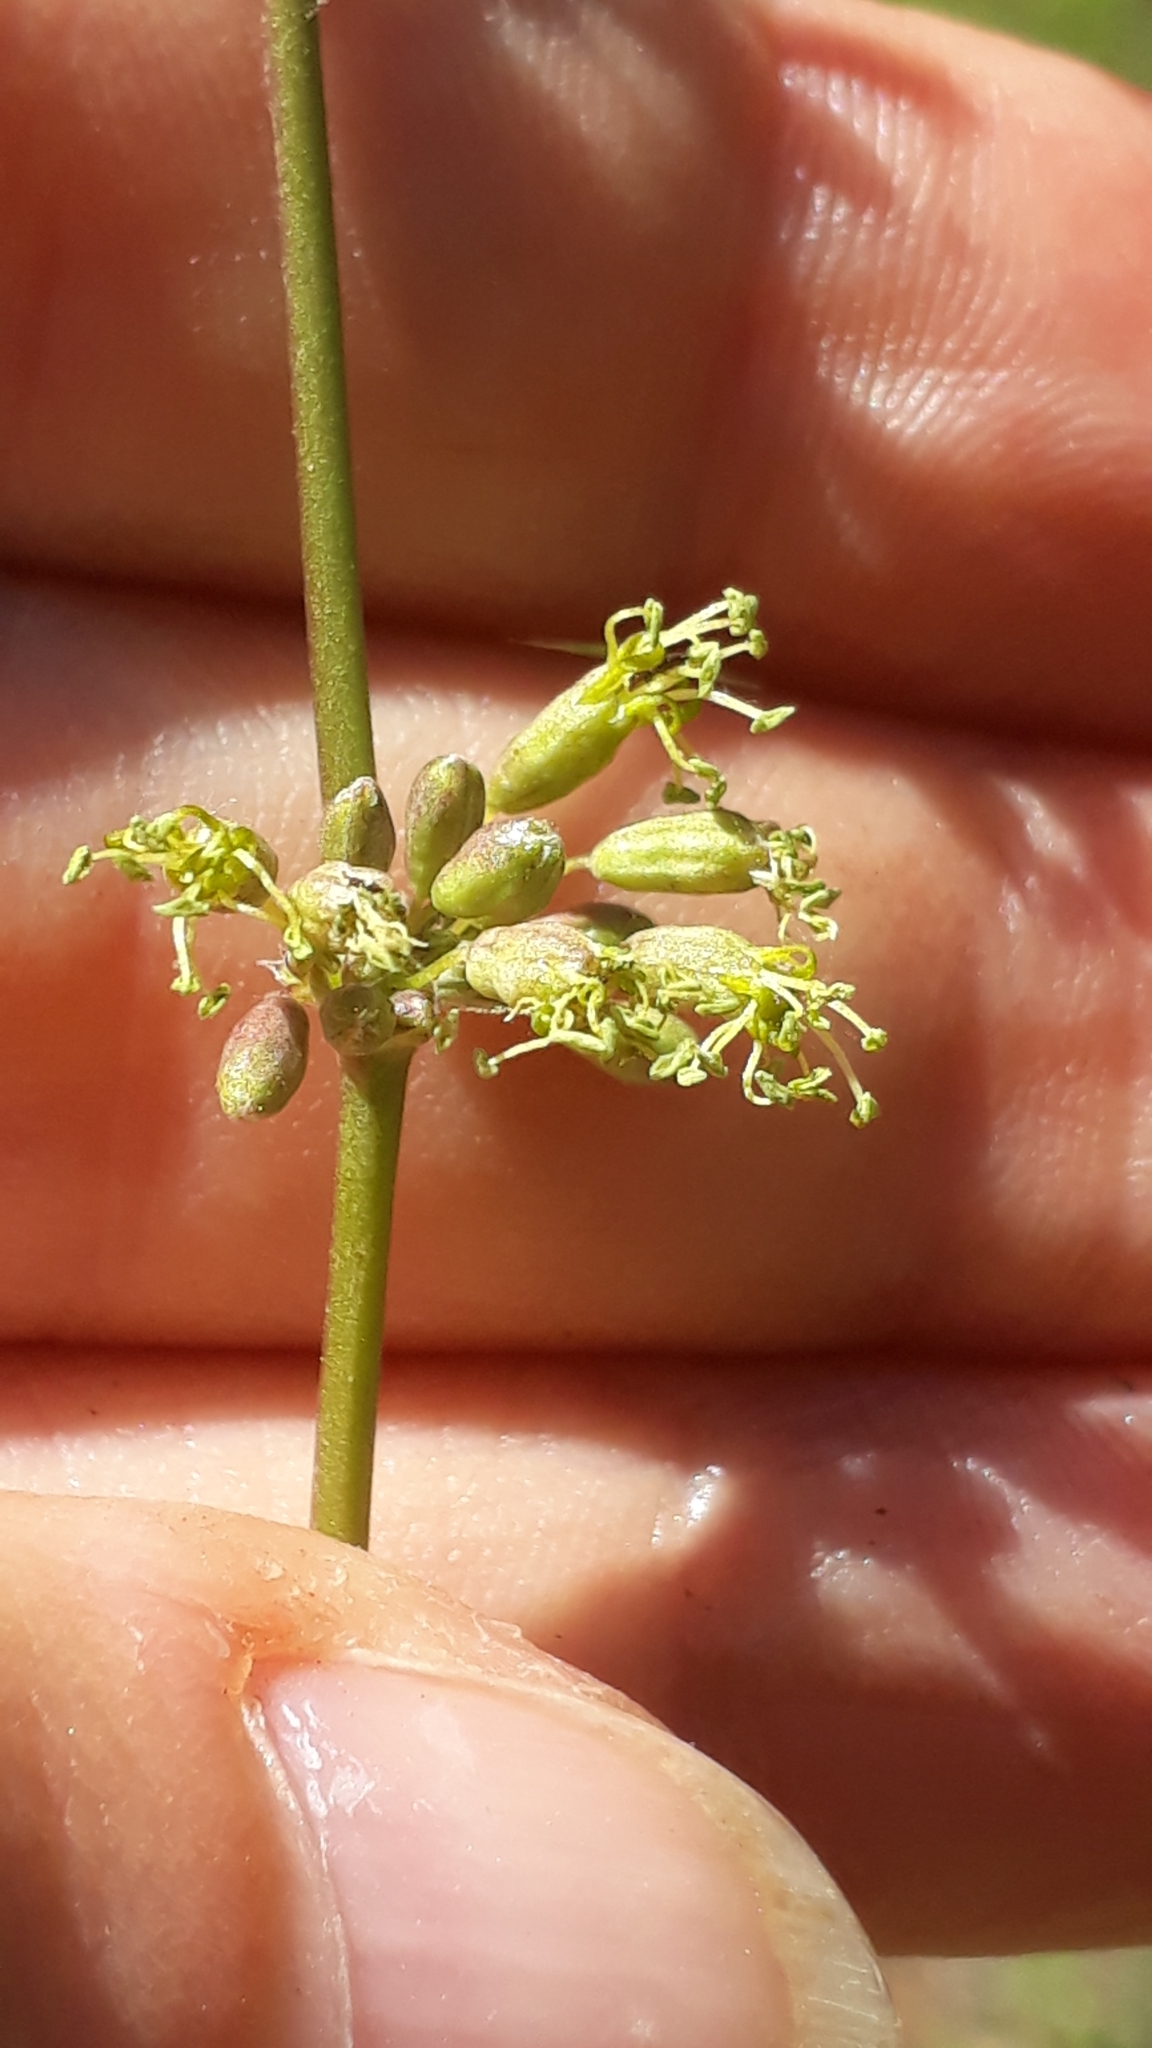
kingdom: Plantae
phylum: Tracheophyta
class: Magnoliopsida
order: Caryophyllales
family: Caryophyllaceae
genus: Silene
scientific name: Silene otites
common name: Spanish catchfly
